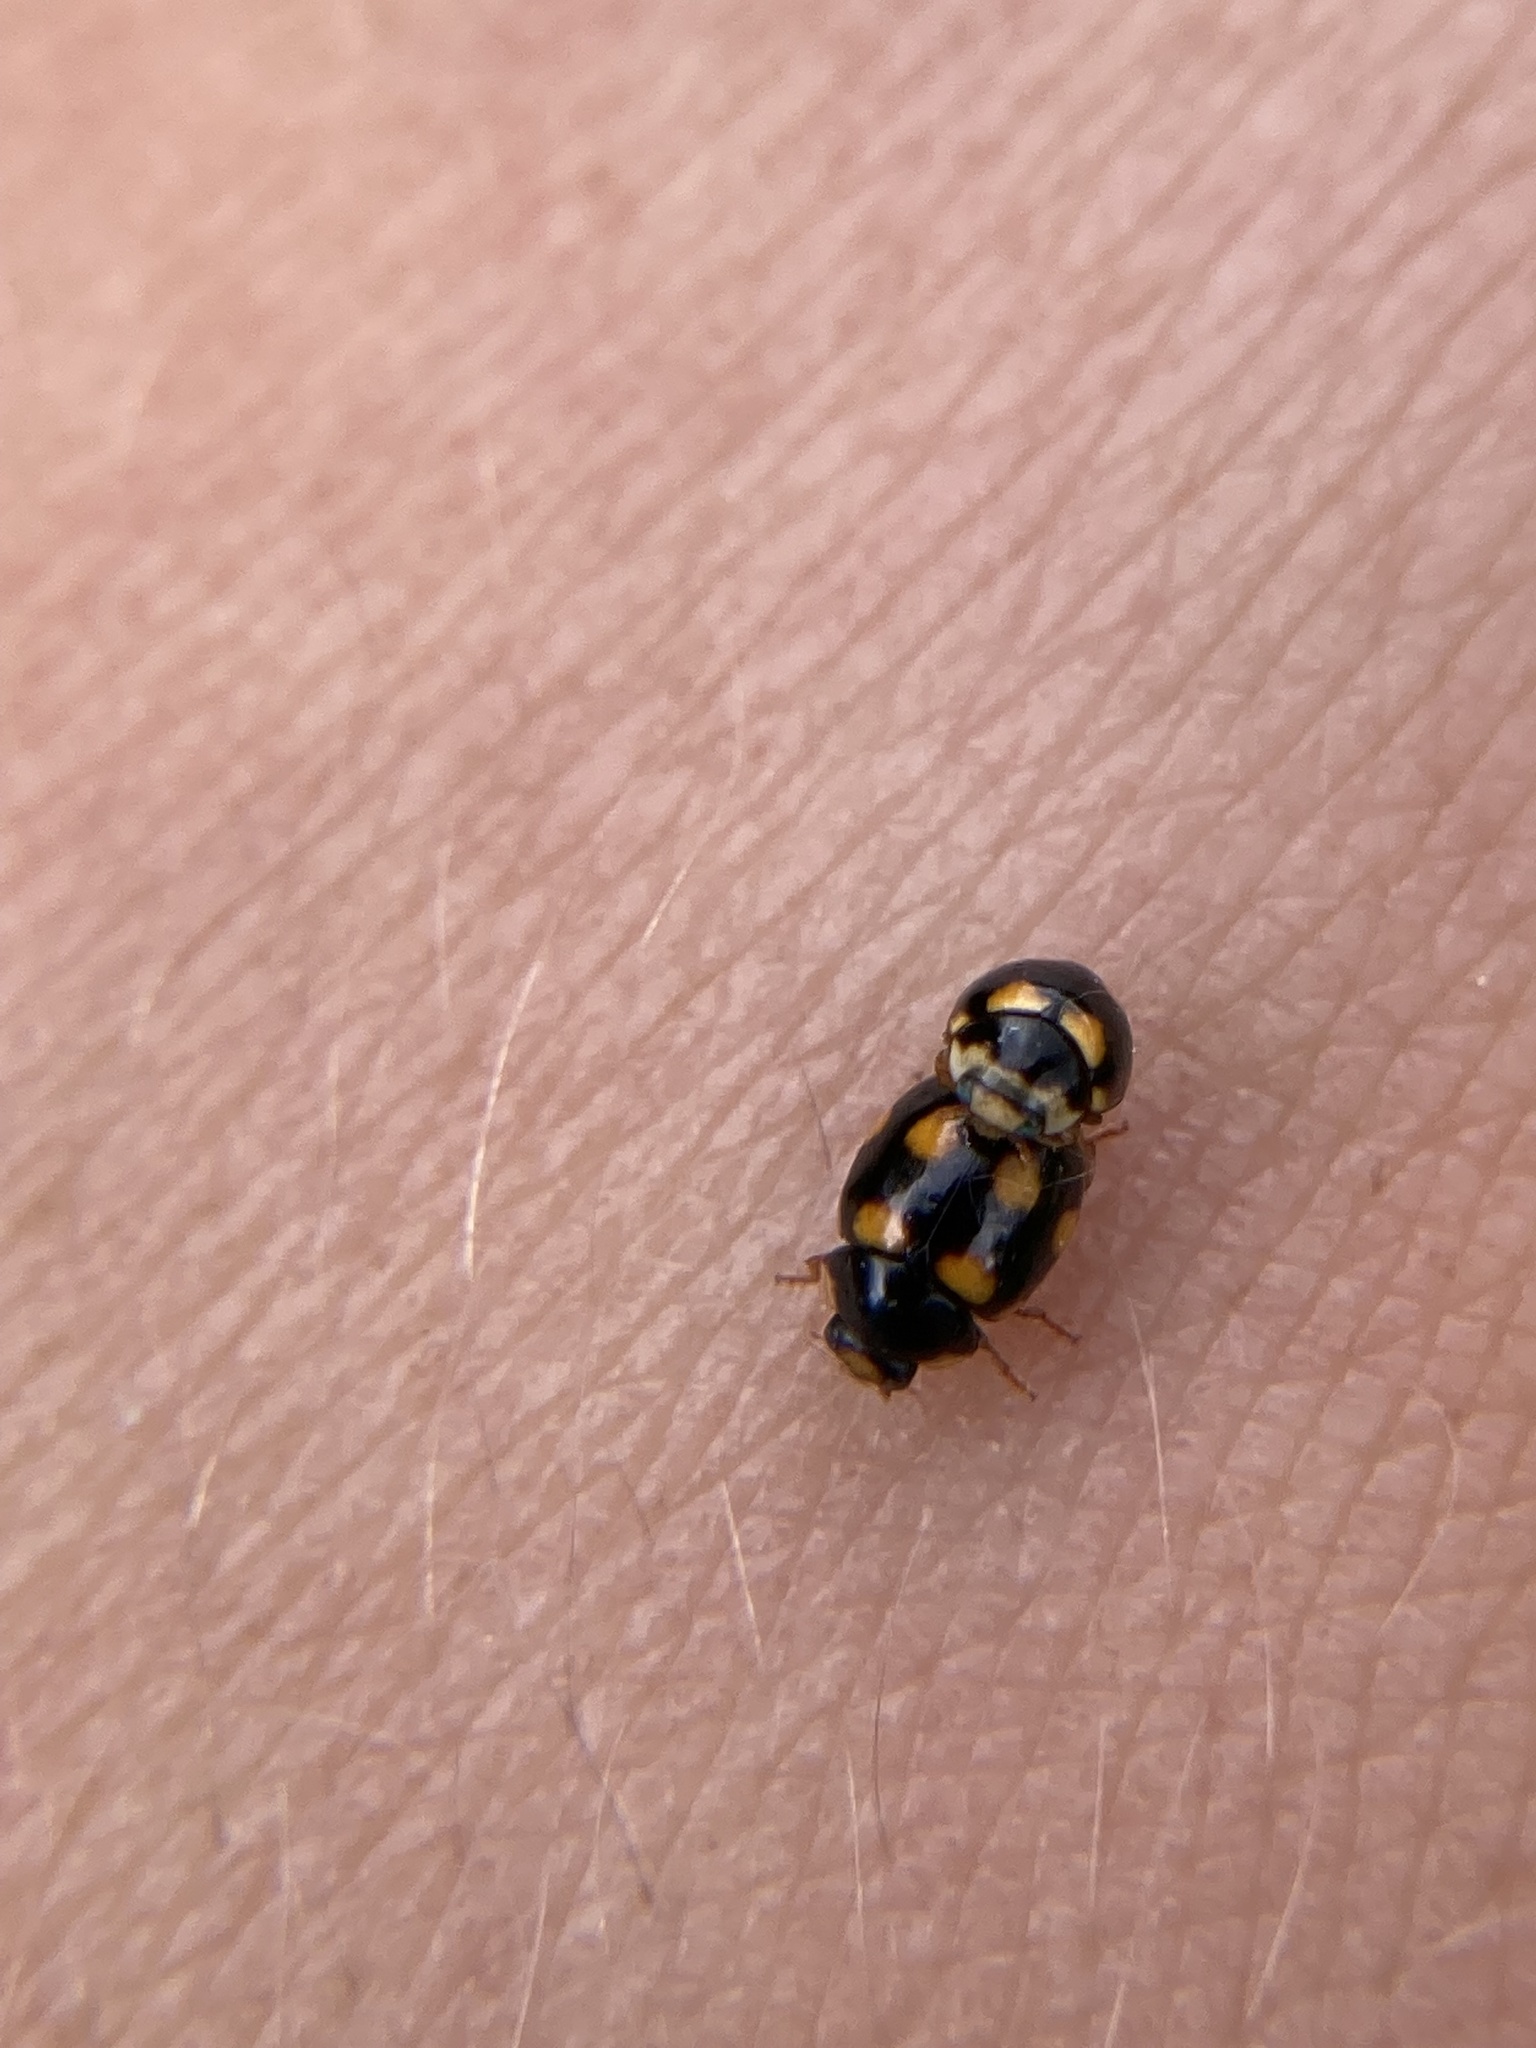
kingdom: Animalia
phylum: Arthropoda
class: Insecta
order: Coleoptera
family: Coccinellidae
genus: Brachiacantha
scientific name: Brachiacantha ursina
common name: Ursine spurleg lady beetle
